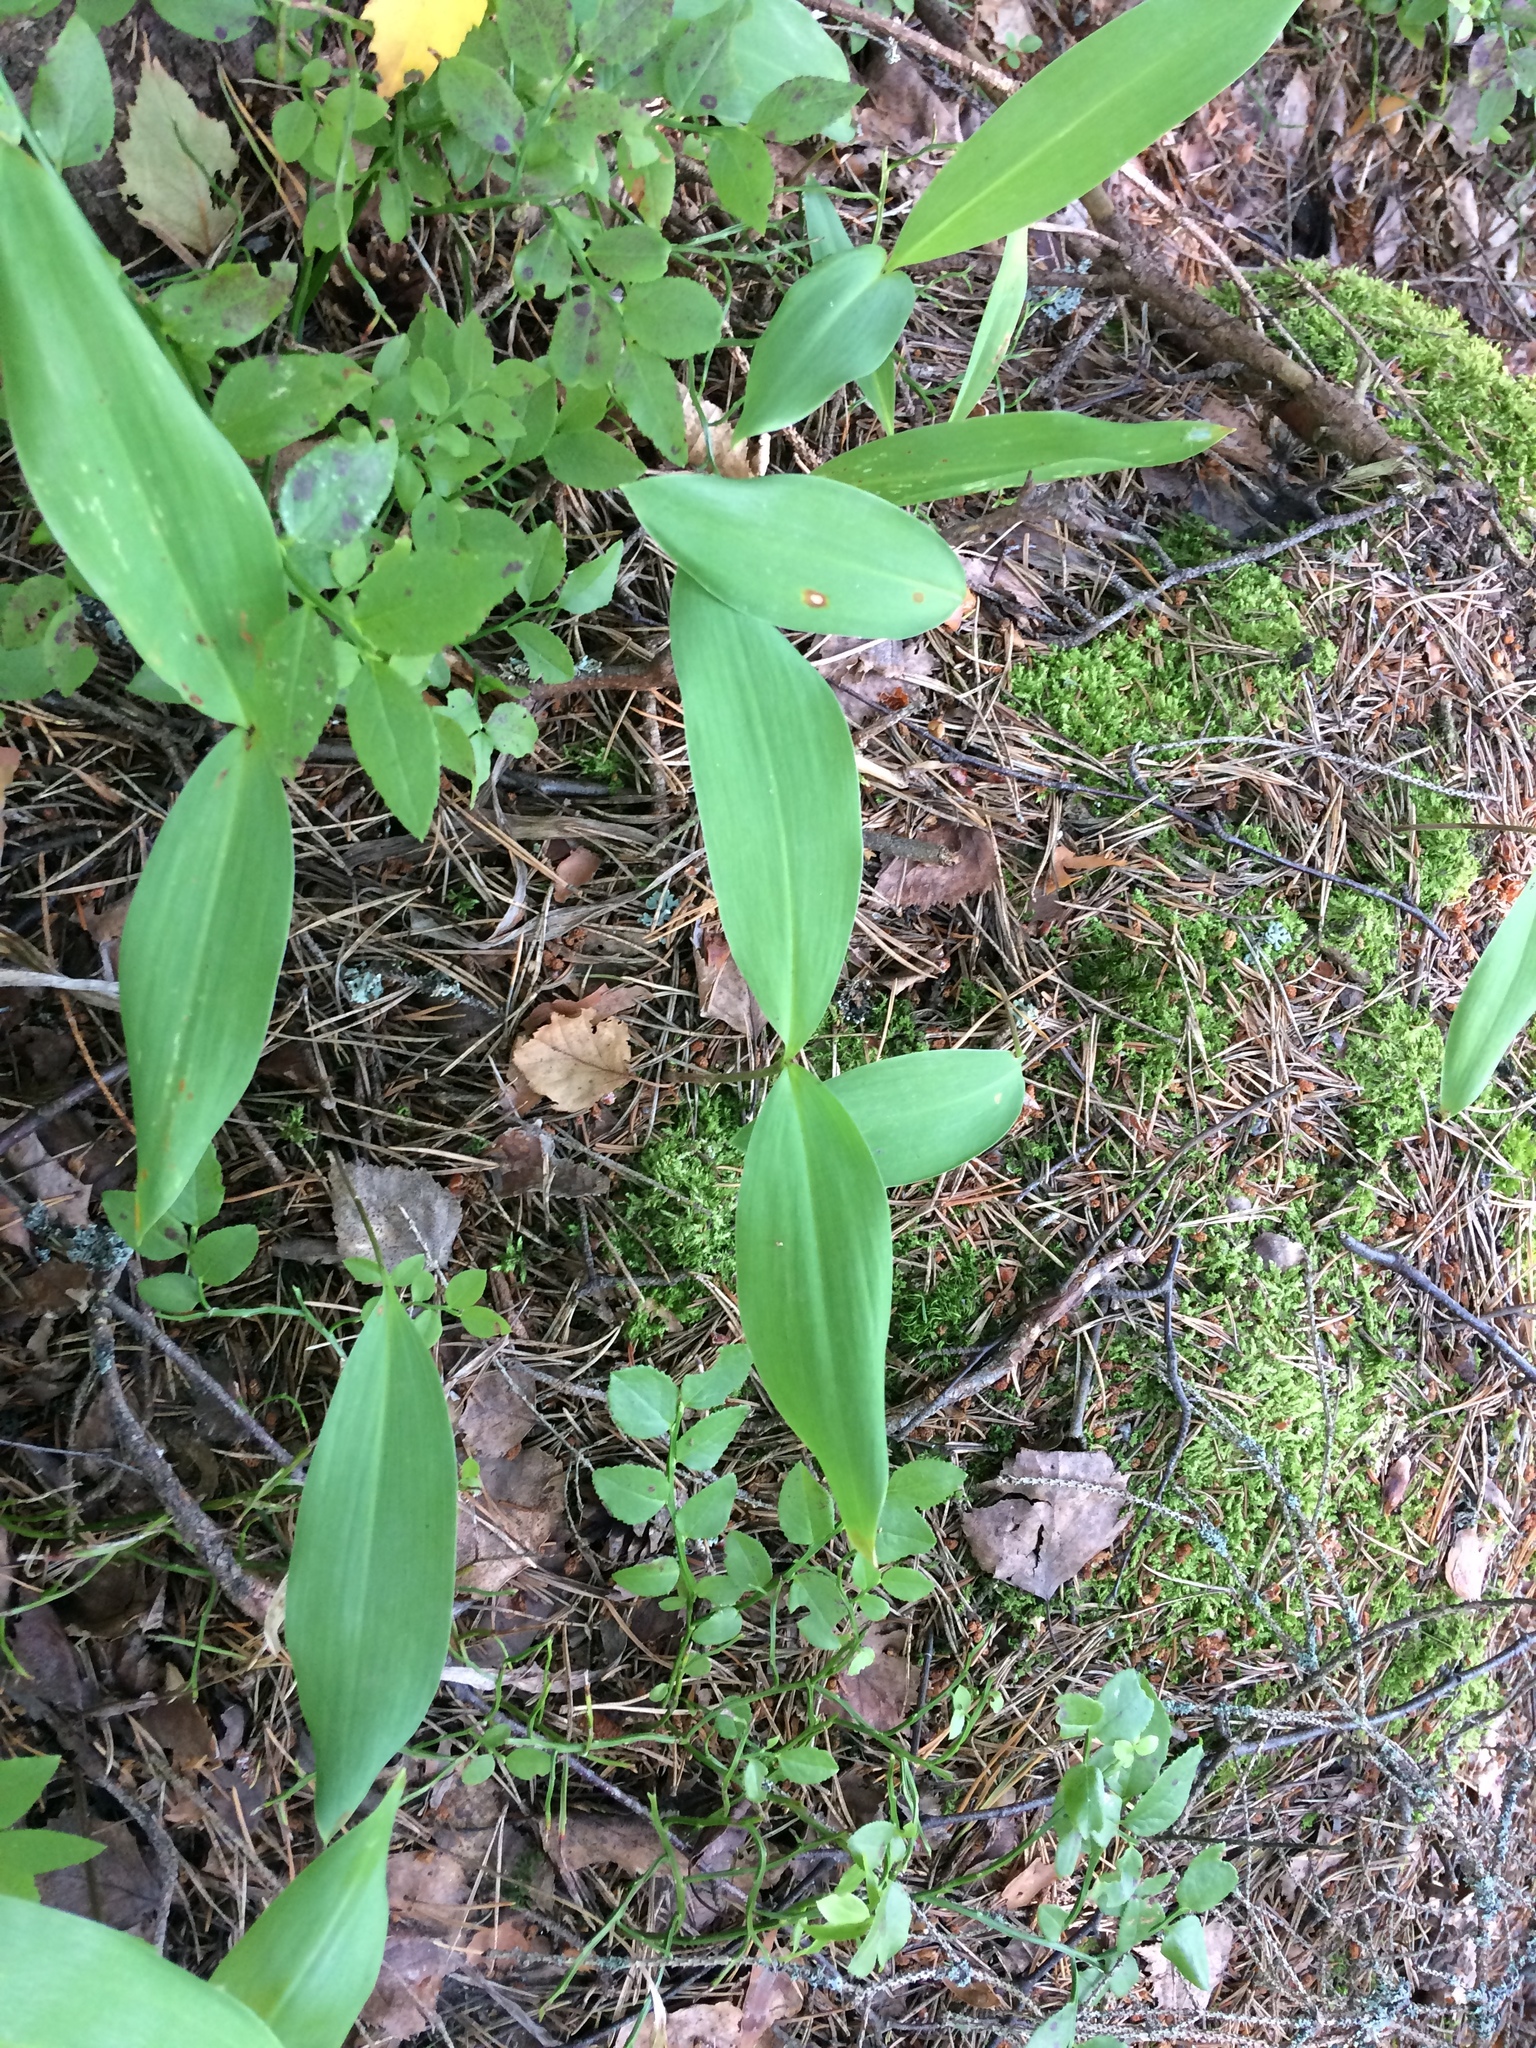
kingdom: Plantae
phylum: Tracheophyta
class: Liliopsida
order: Asparagales
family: Asparagaceae
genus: Convallaria
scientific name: Convallaria majalis
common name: Lily-of-the-valley
